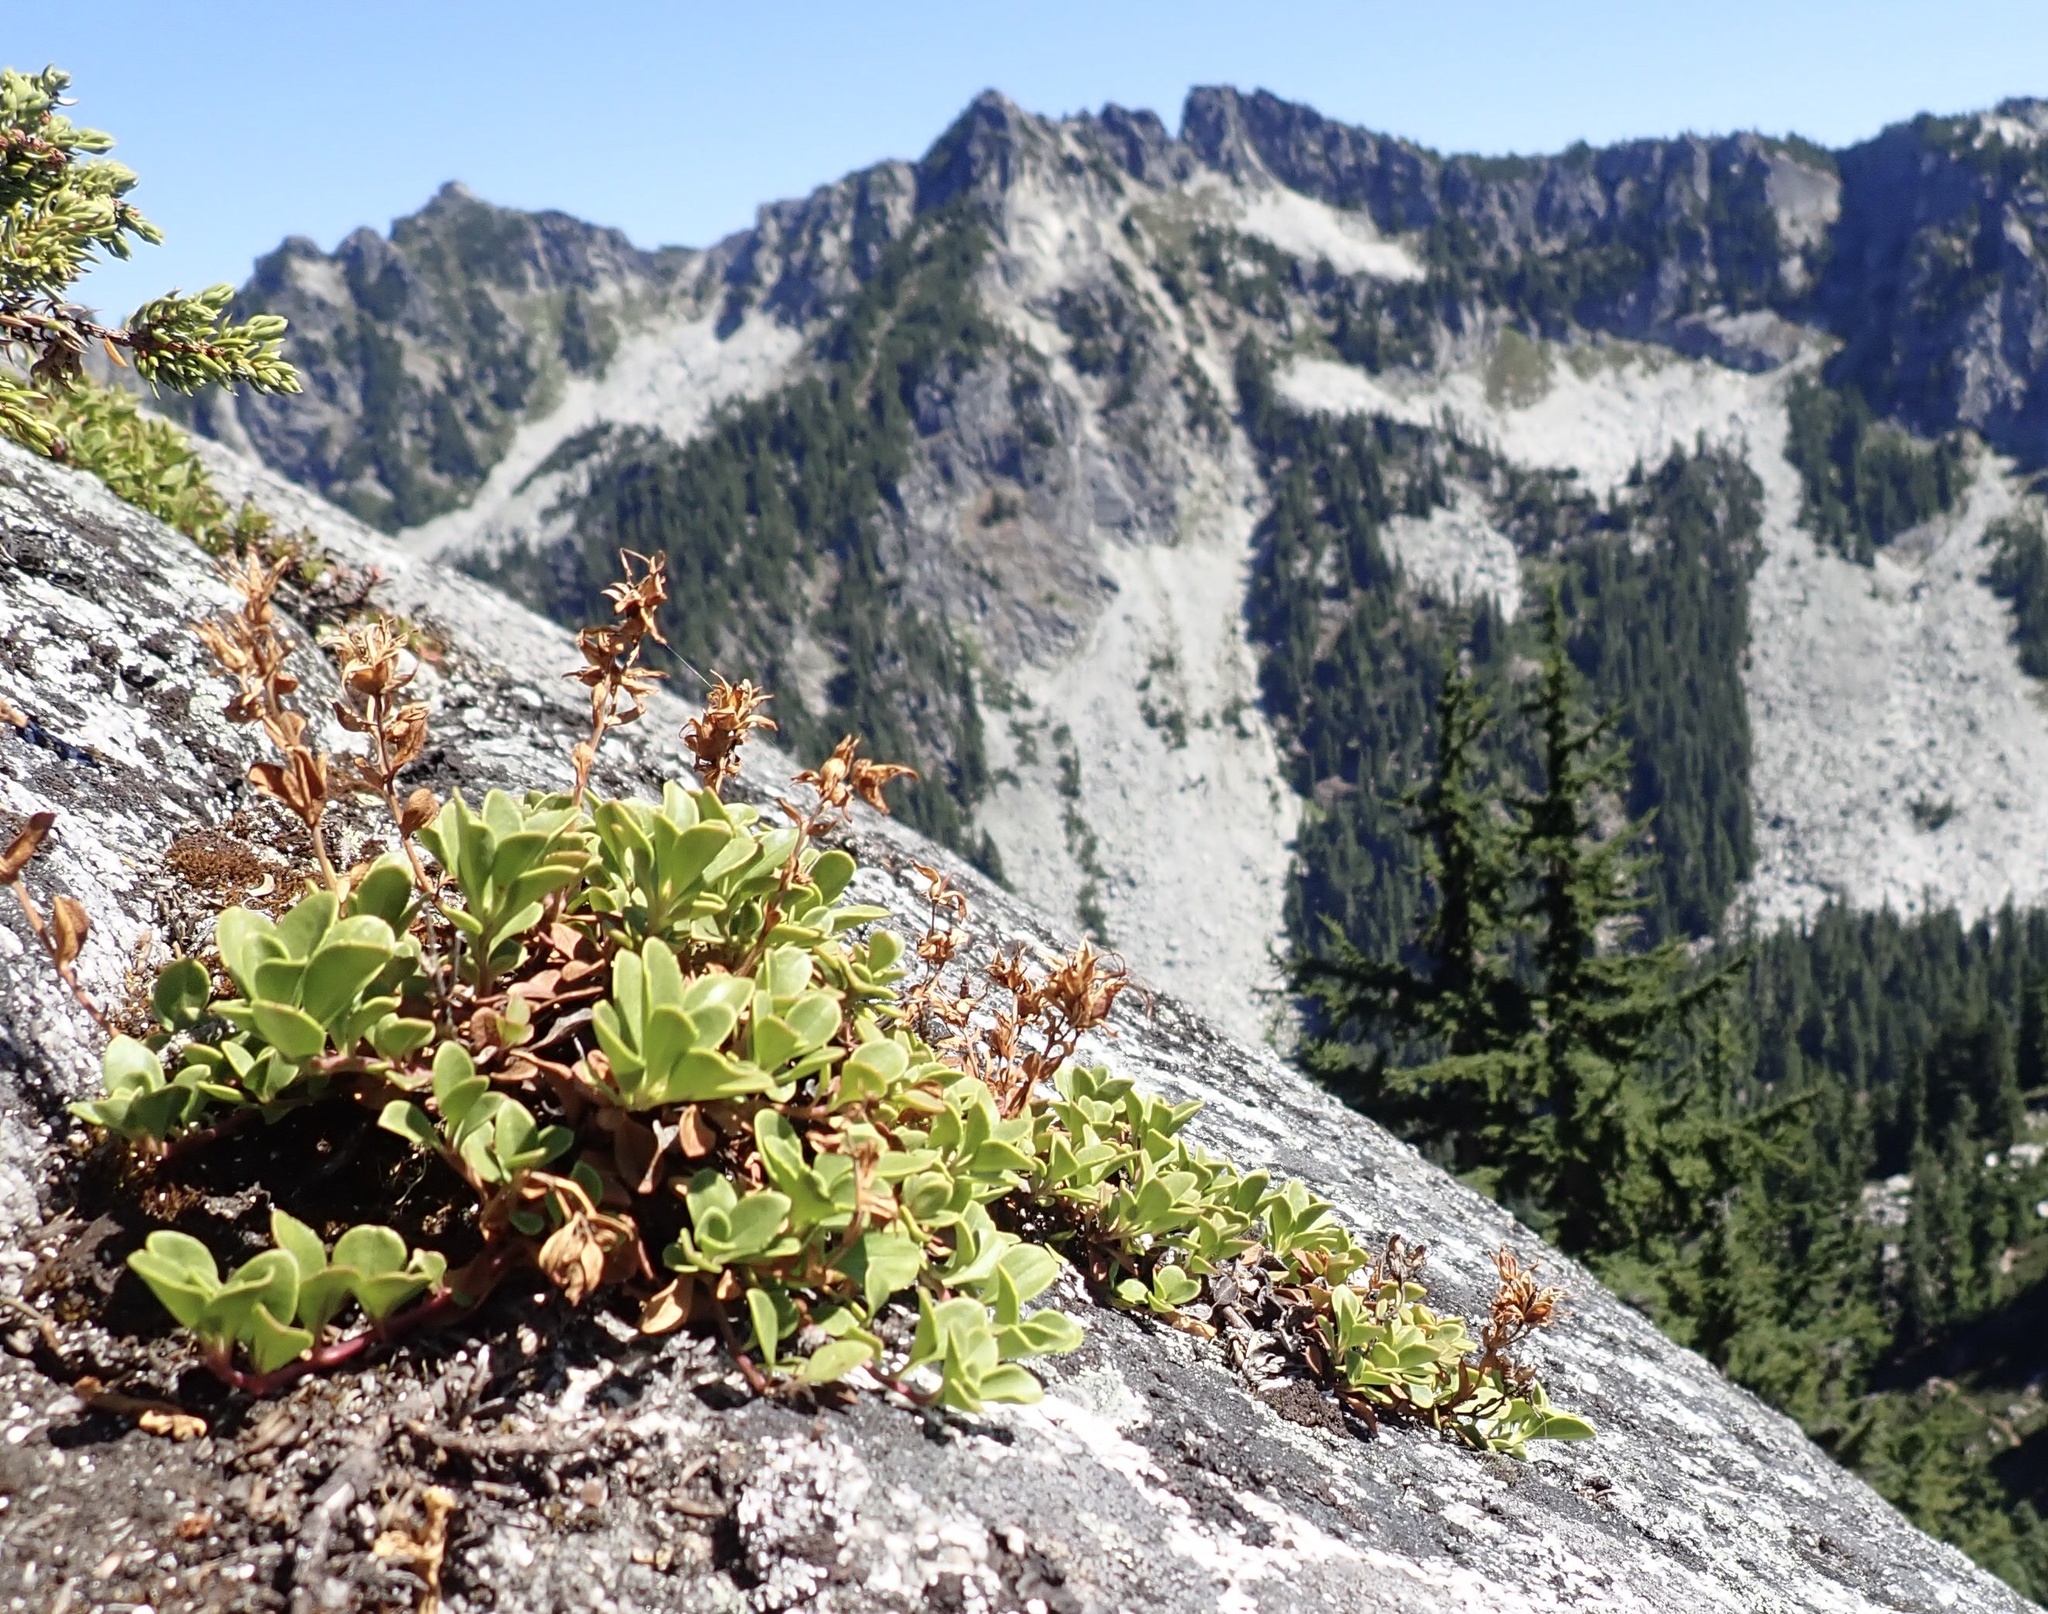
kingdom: Plantae
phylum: Tracheophyta
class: Magnoliopsida
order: Lamiales
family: Plantaginaceae
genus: Penstemon
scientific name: Penstemon davidsonii
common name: Davidson's penstemon
